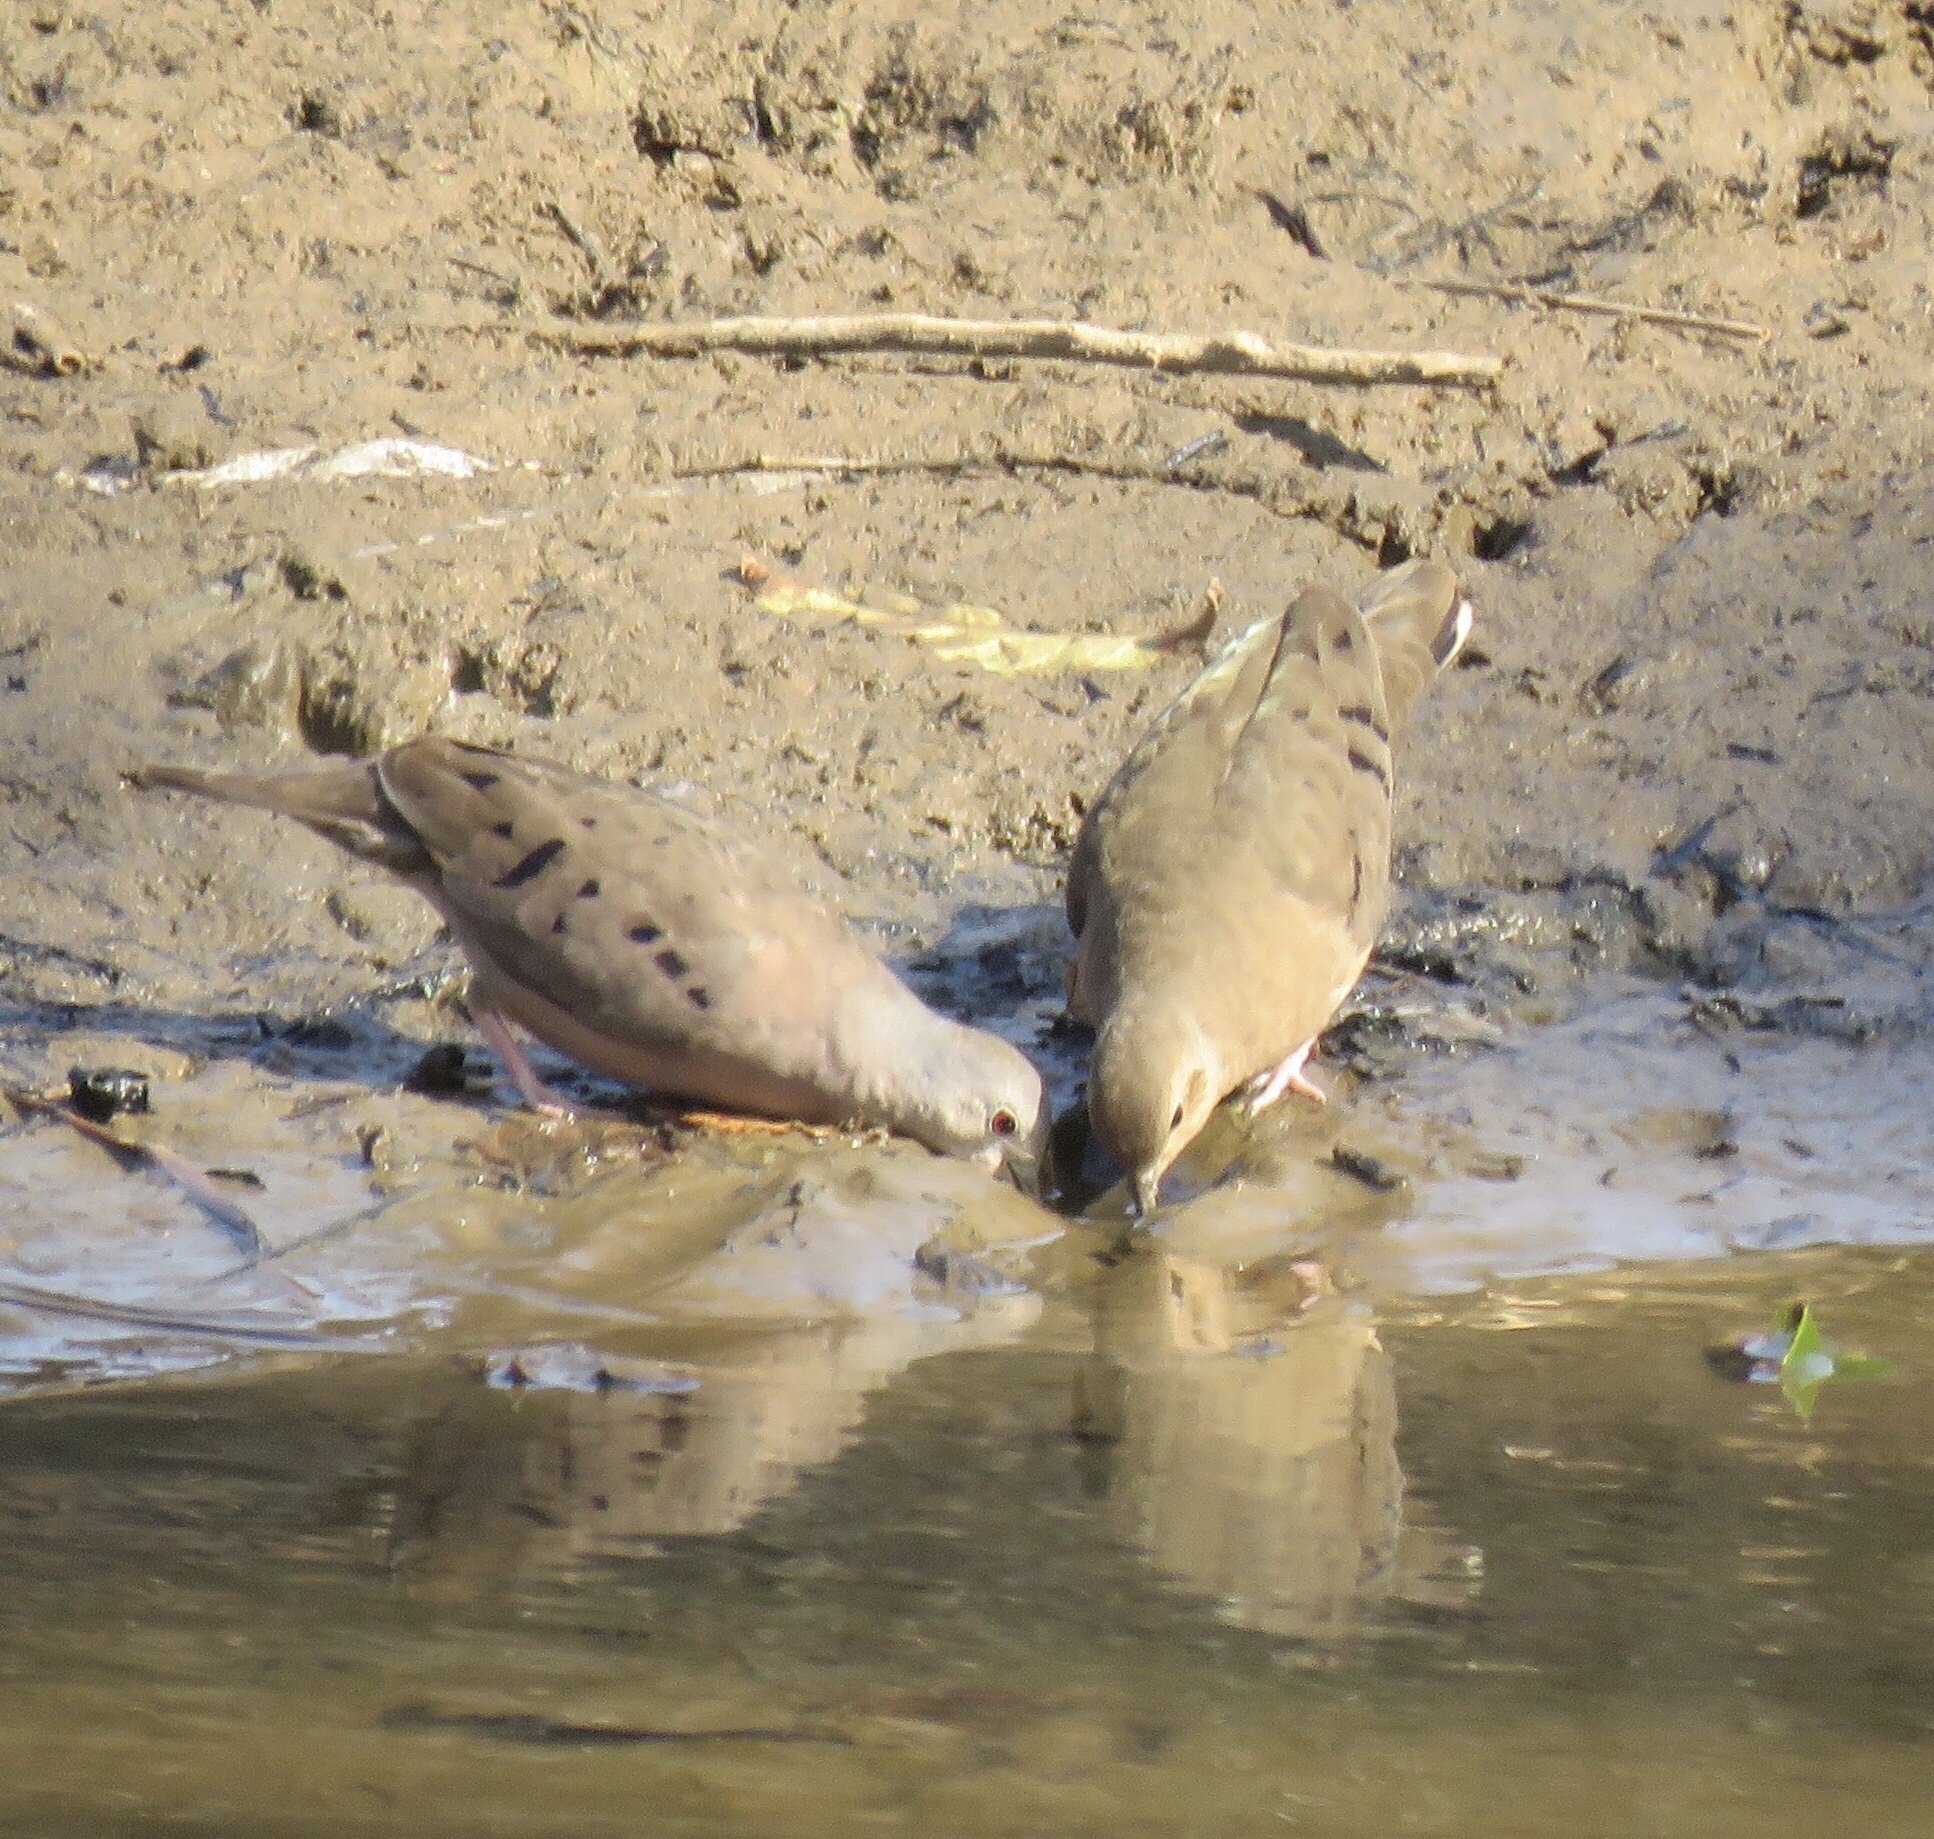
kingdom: Animalia
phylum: Chordata
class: Aves
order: Columbiformes
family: Columbidae
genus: Columbina
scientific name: Columbina minuta
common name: Plain-breasted ground dove
